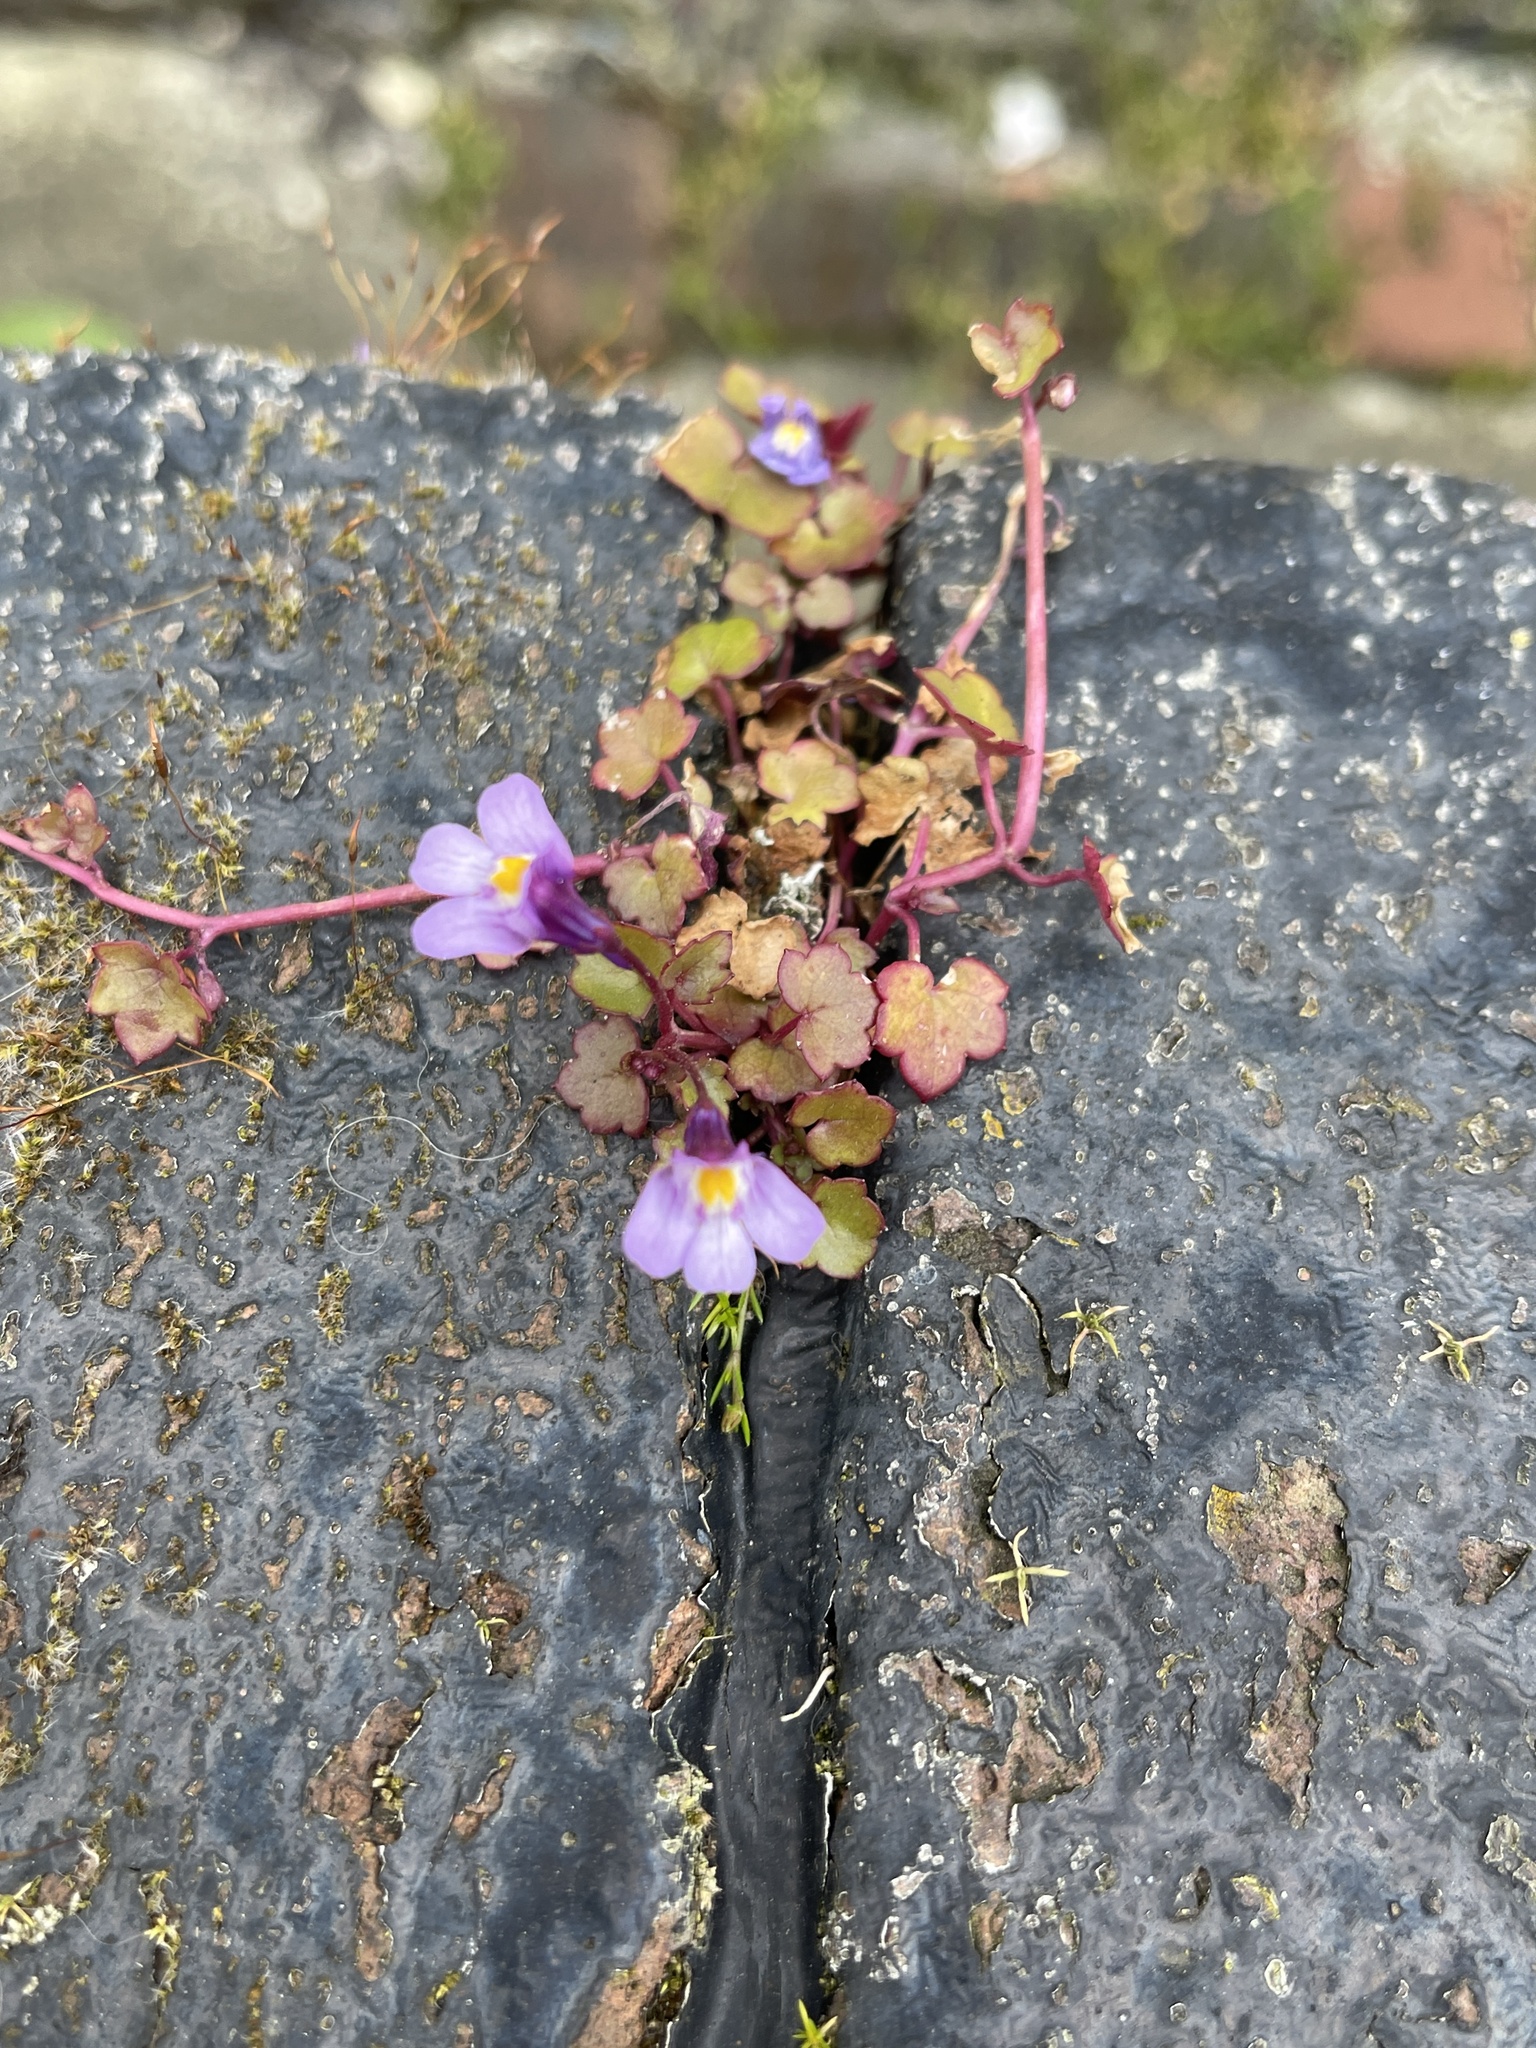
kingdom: Plantae
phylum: Tracheophyta
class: Magnoliopsida
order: Lamiales
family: Plantaginaceae
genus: Cymbalaria
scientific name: Cymbalaria muralis
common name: Ivy-leaved toadflax
